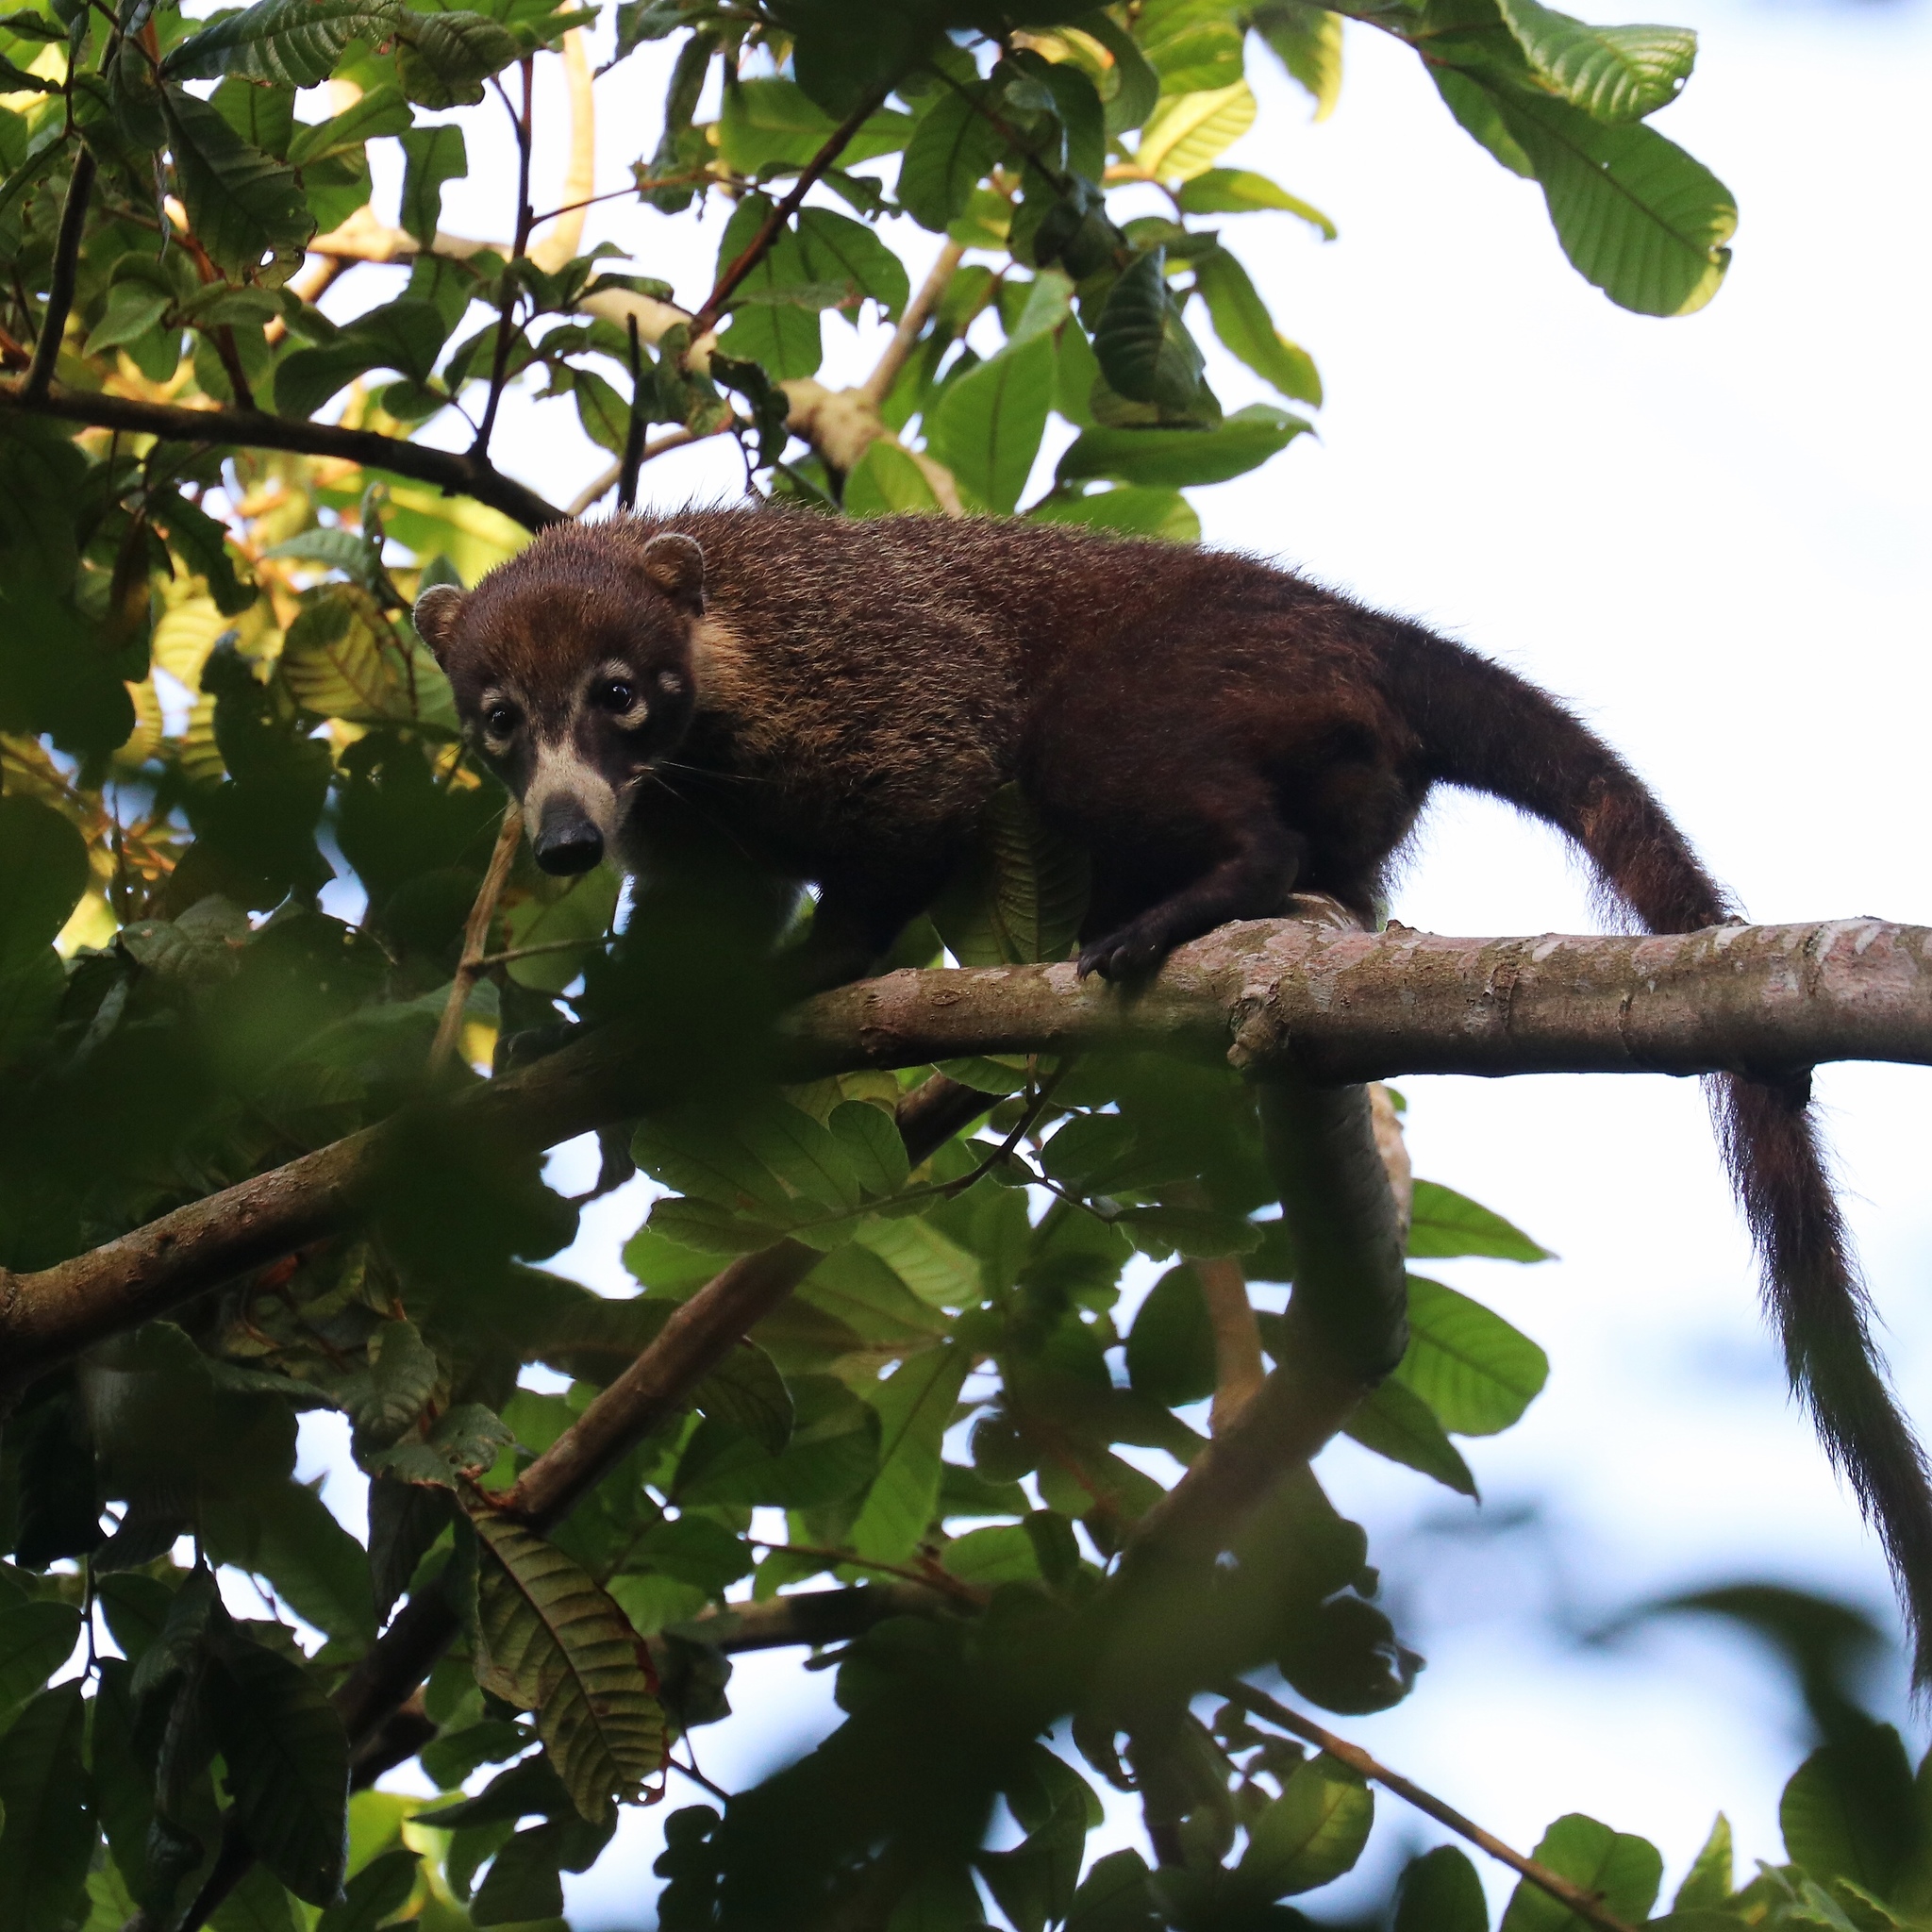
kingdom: Animalia
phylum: Chordata
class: Mammalia
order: Carnivora
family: Procyonidae
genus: Nasua
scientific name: Nasua narica
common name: White-nosed coati
